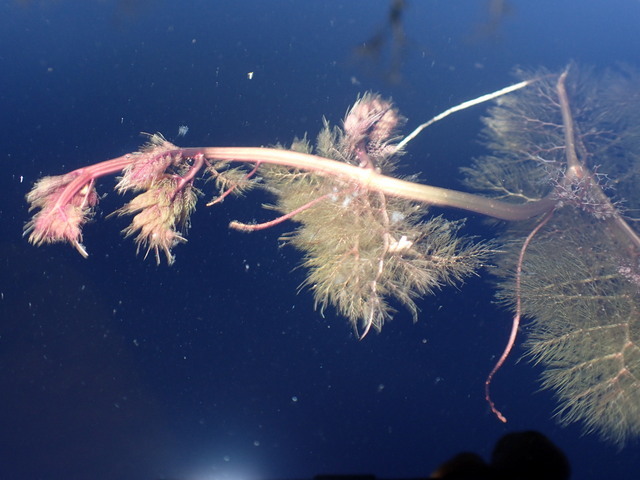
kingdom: Plantae
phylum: Tracheophyta
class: Magnoliopsida
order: Lamiales
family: Lentibulariaceae
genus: Utricularia
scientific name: Utricularia foliosa
